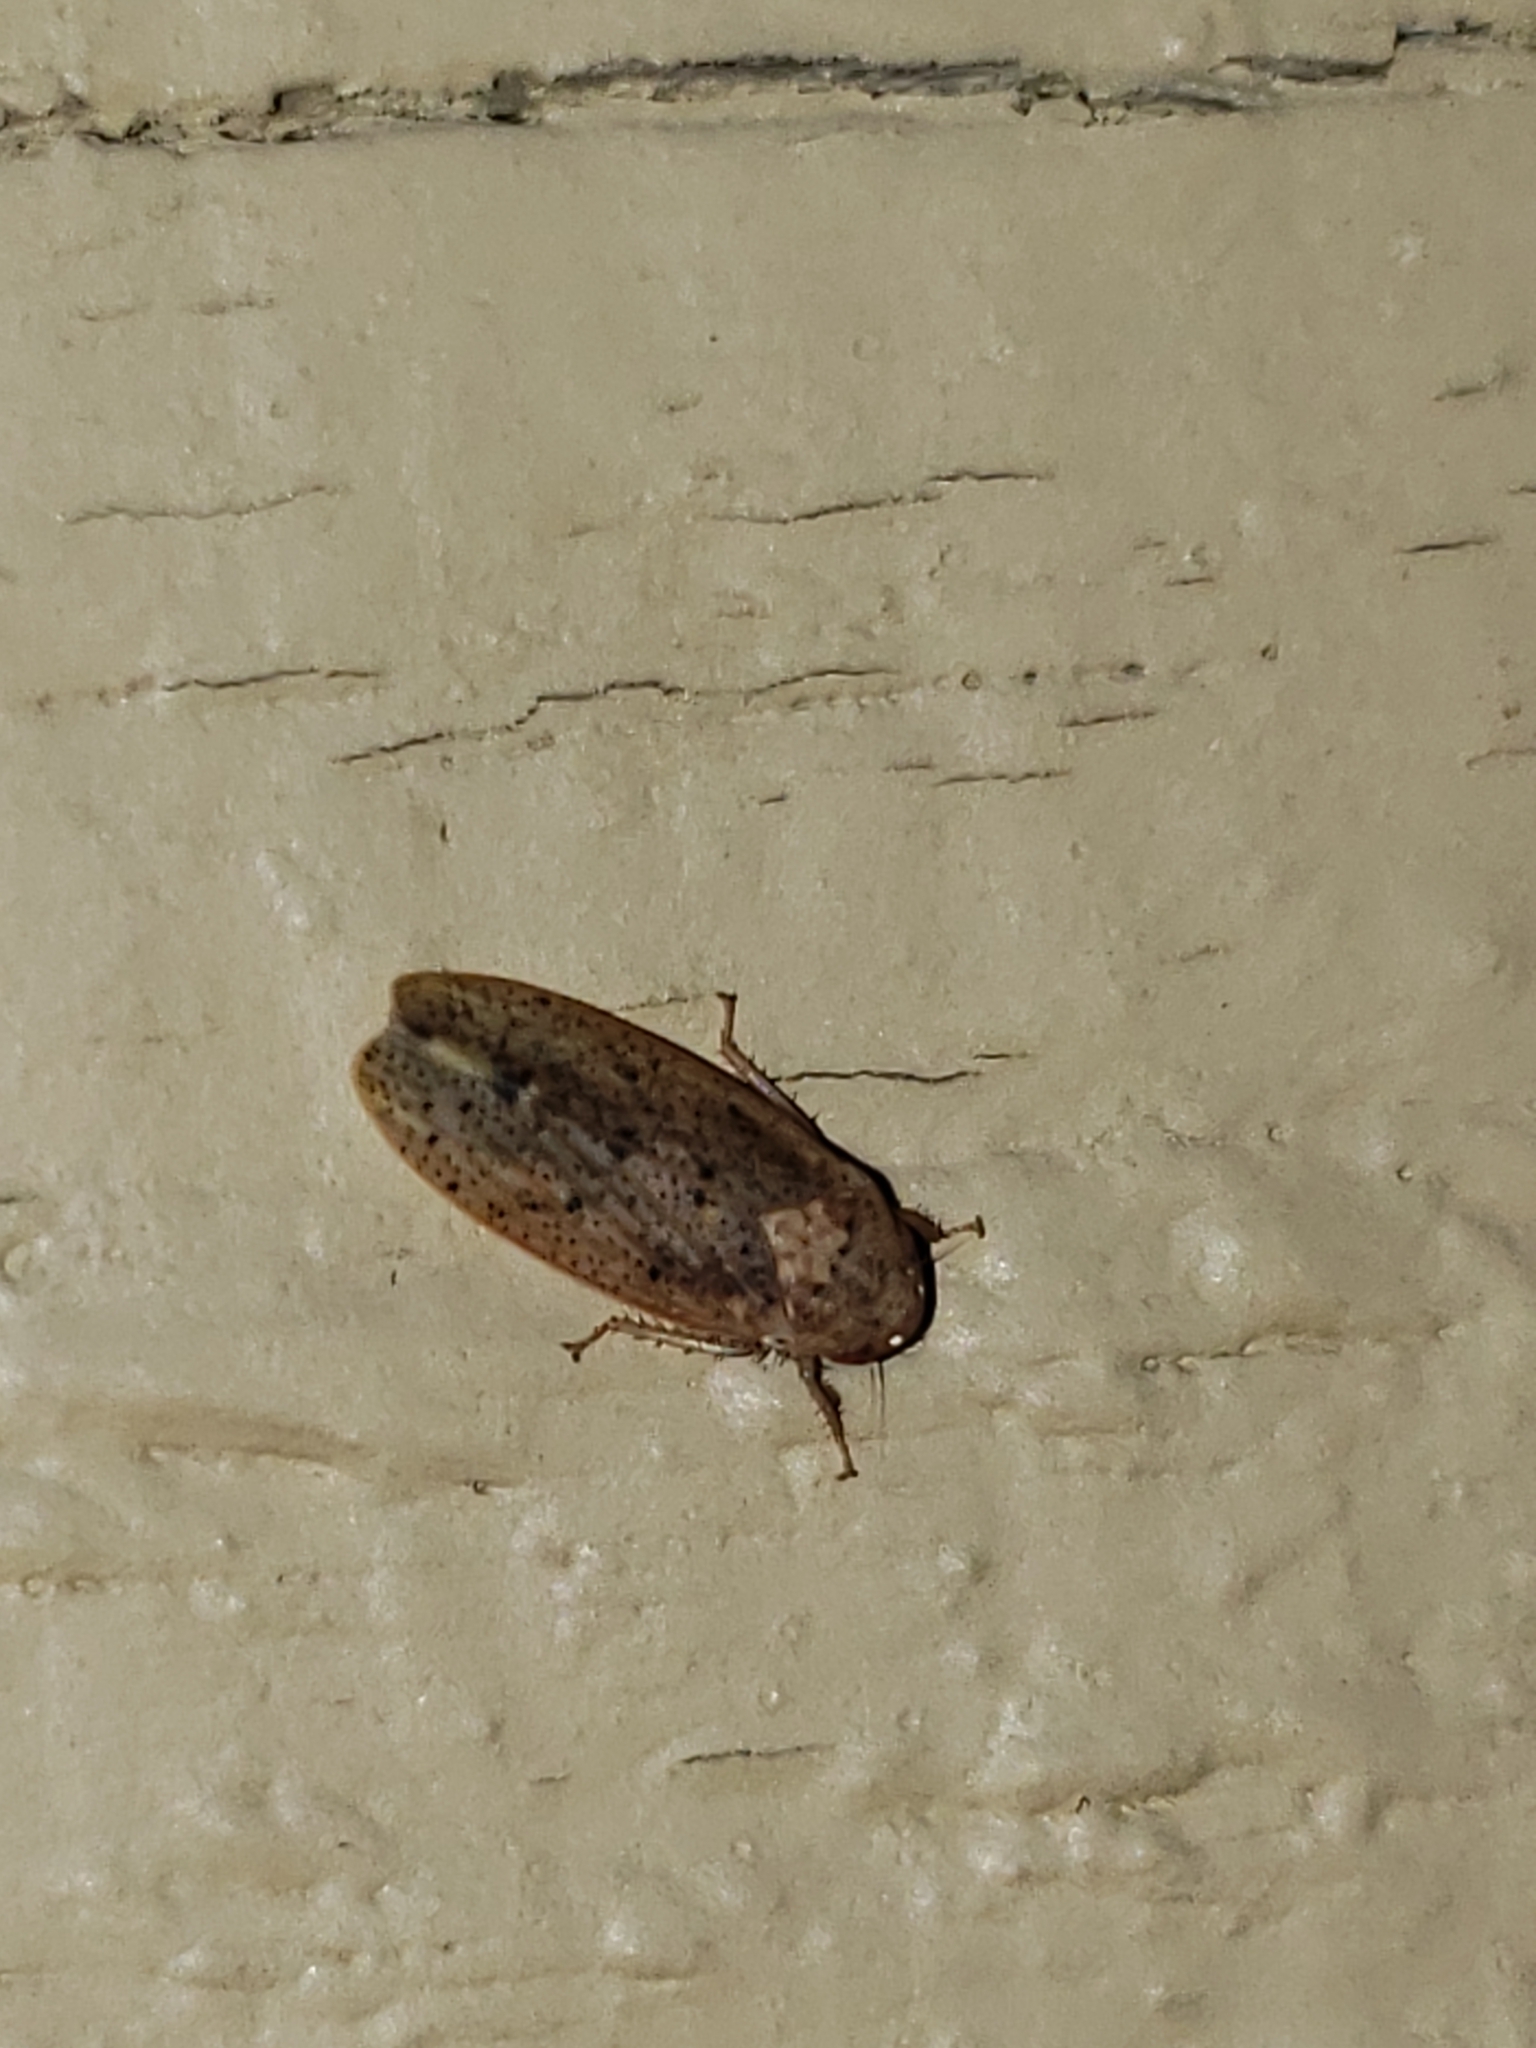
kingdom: Animalia
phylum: Arthropoda
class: Insecta
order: Hemiptera
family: Cicadellidae
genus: Ponana
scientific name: Ponana puncticollis
